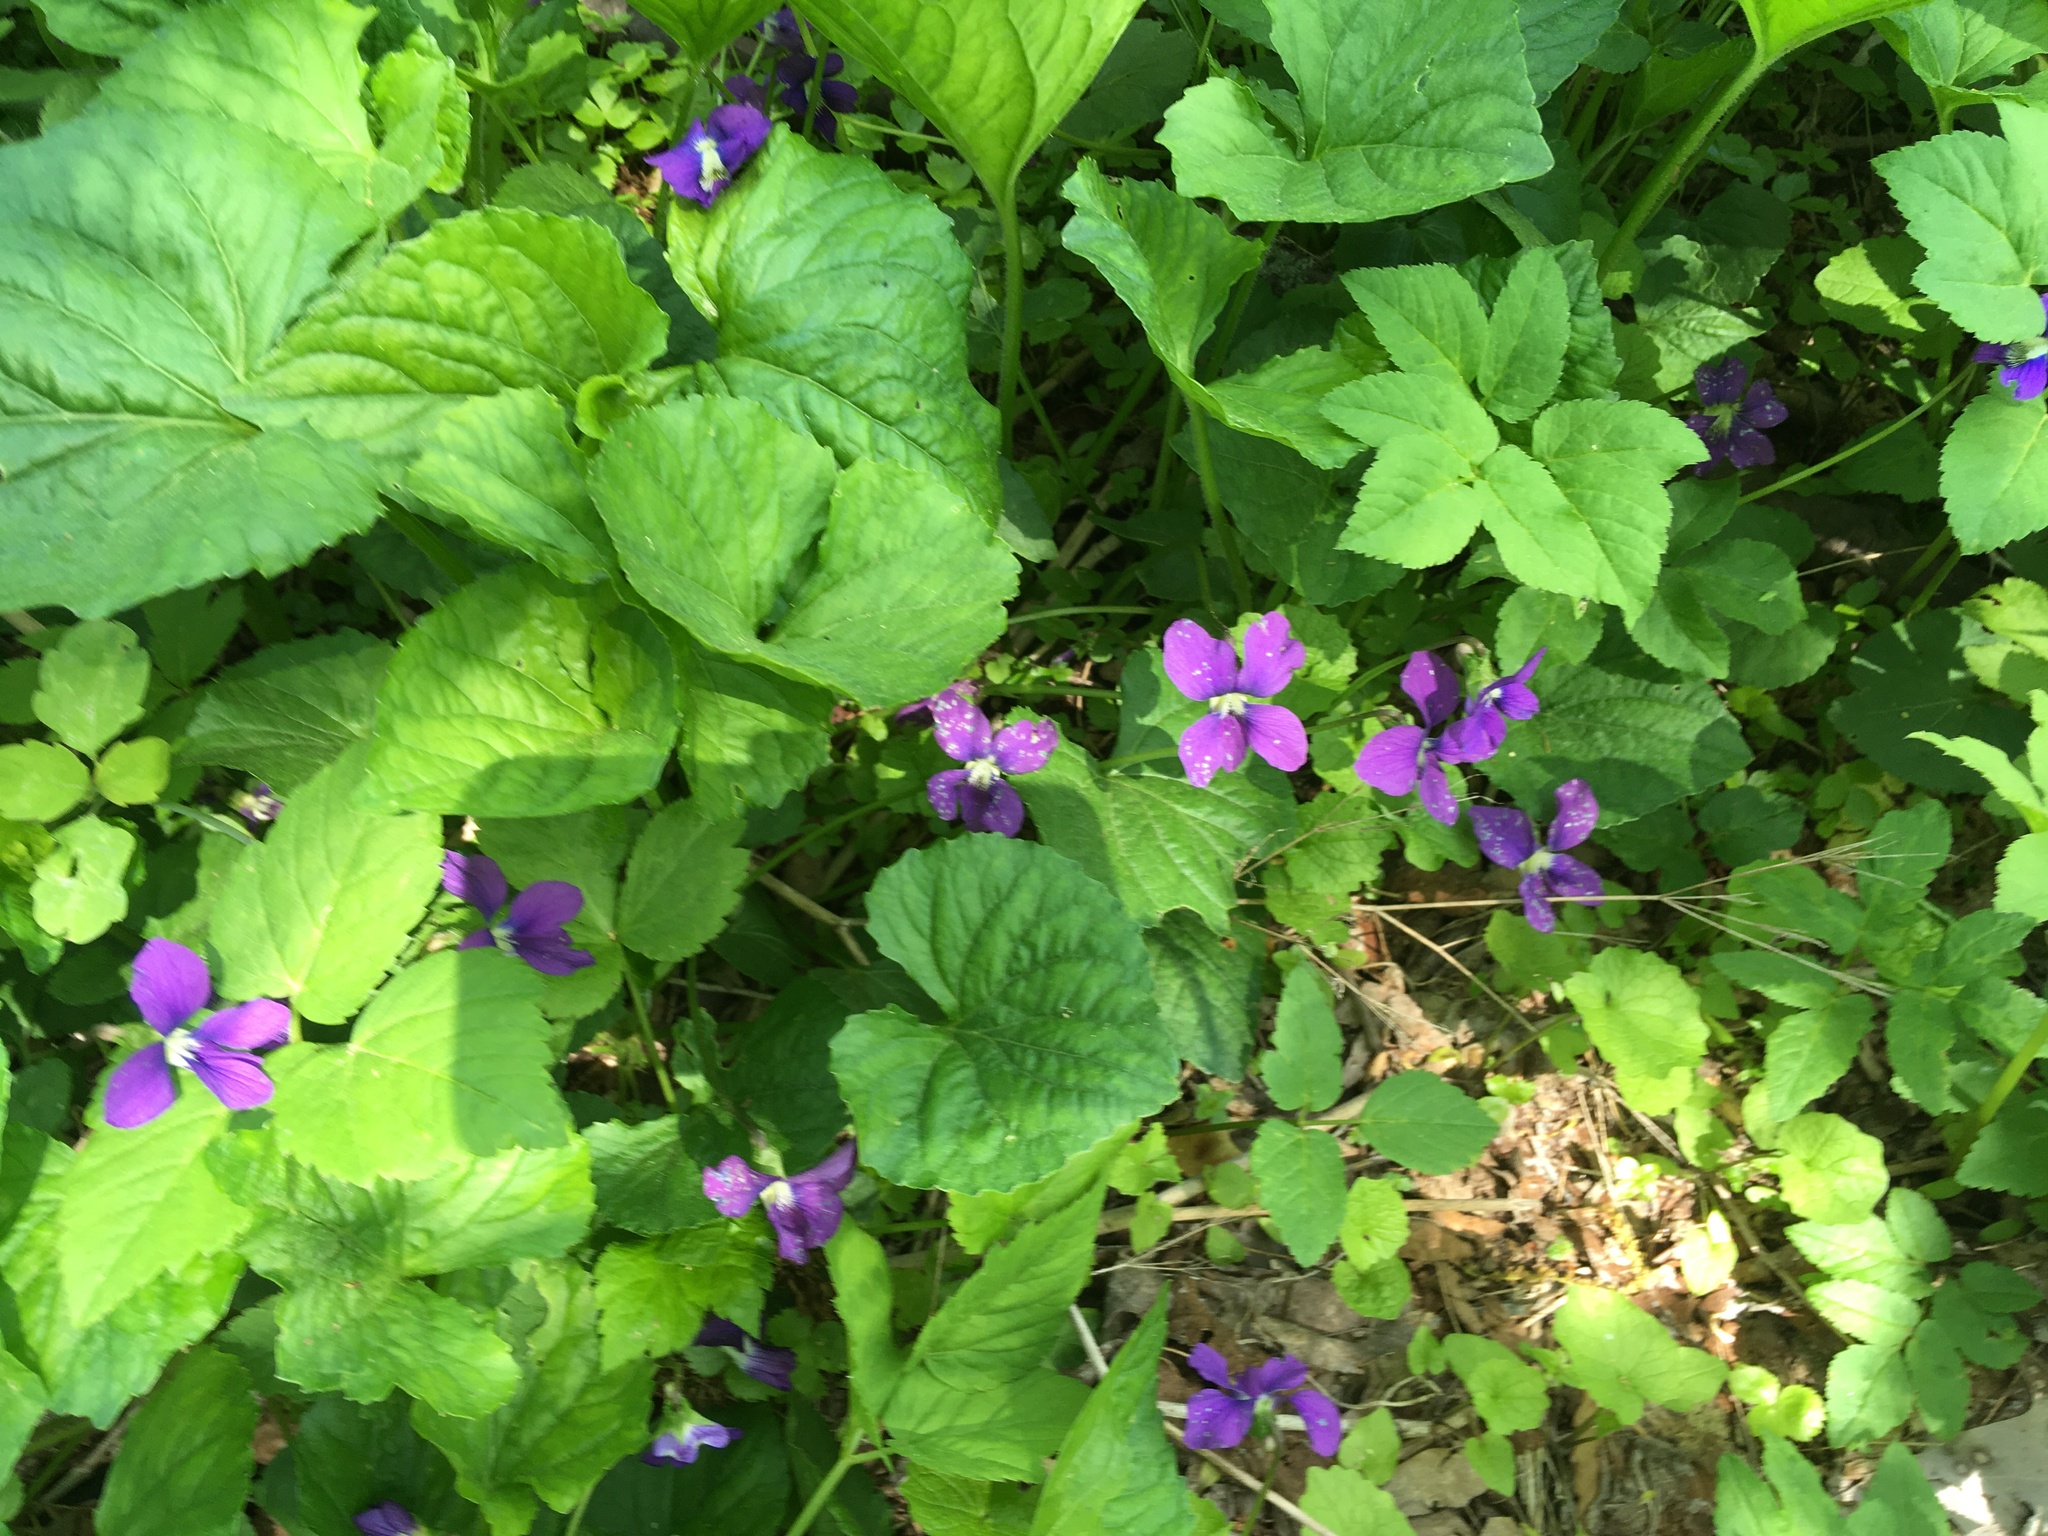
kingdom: Plantae
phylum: Tracheophyta
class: Magnoliopsida
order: Malpighiales
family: Violaceae
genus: Viola
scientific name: Viola sororia
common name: Dooryard violet
